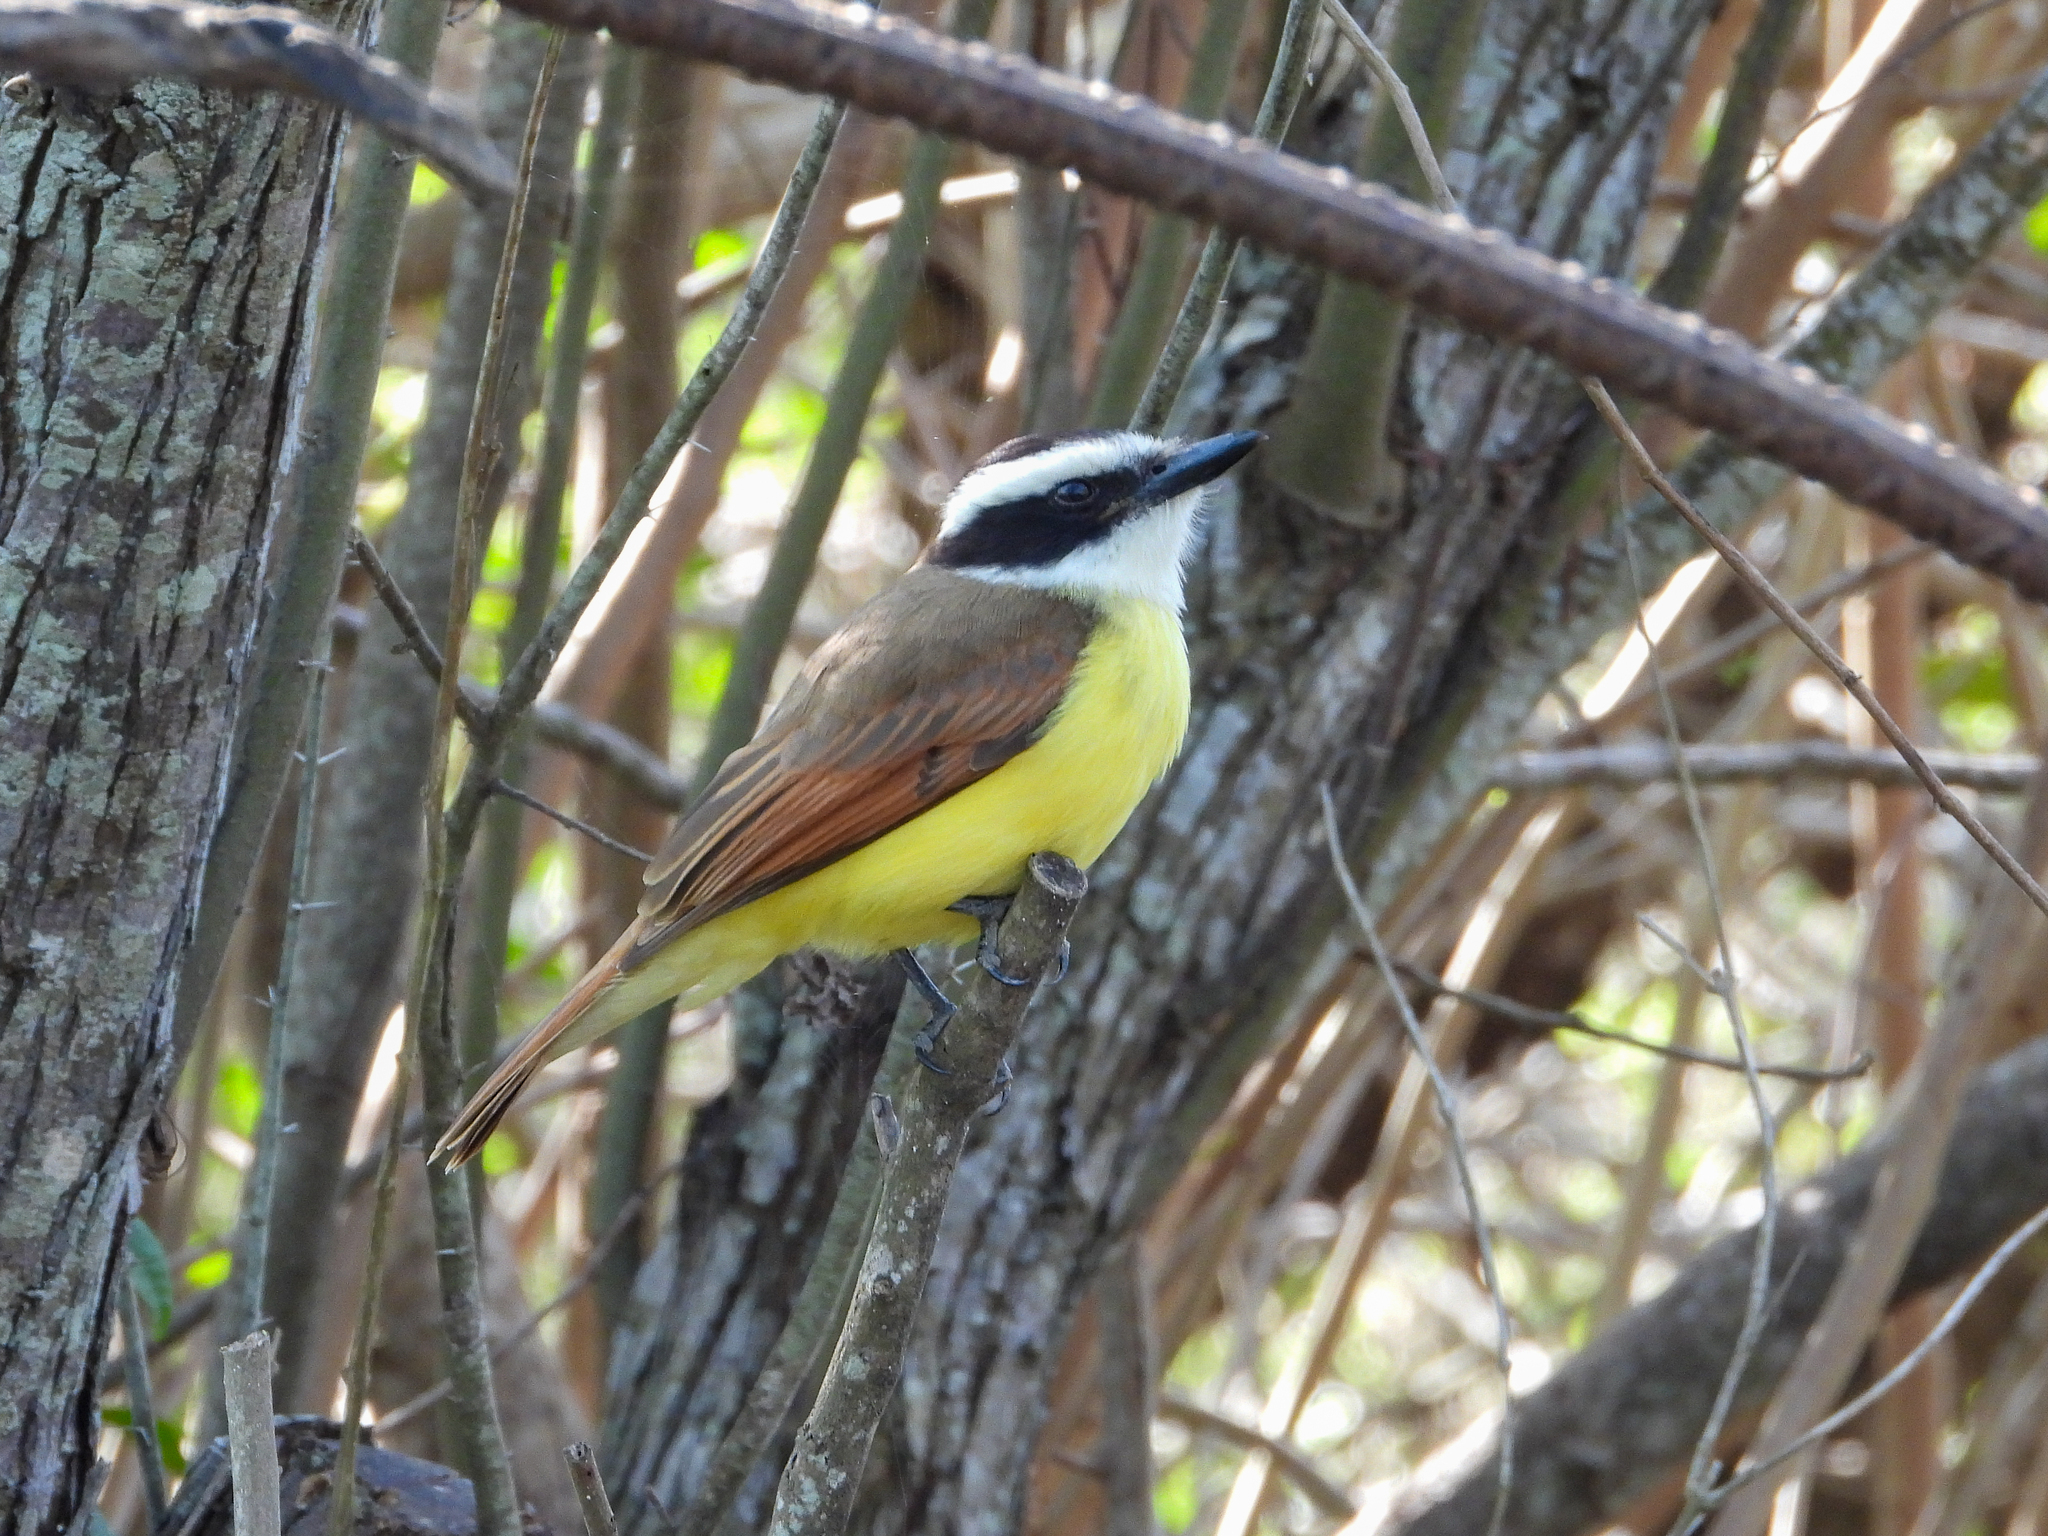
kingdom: Animalia
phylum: Chordata
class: Aves
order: Passeriformes
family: Tyrannidae
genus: Pitangus
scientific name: Pitangus sulphuratus
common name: Great kiskadee
